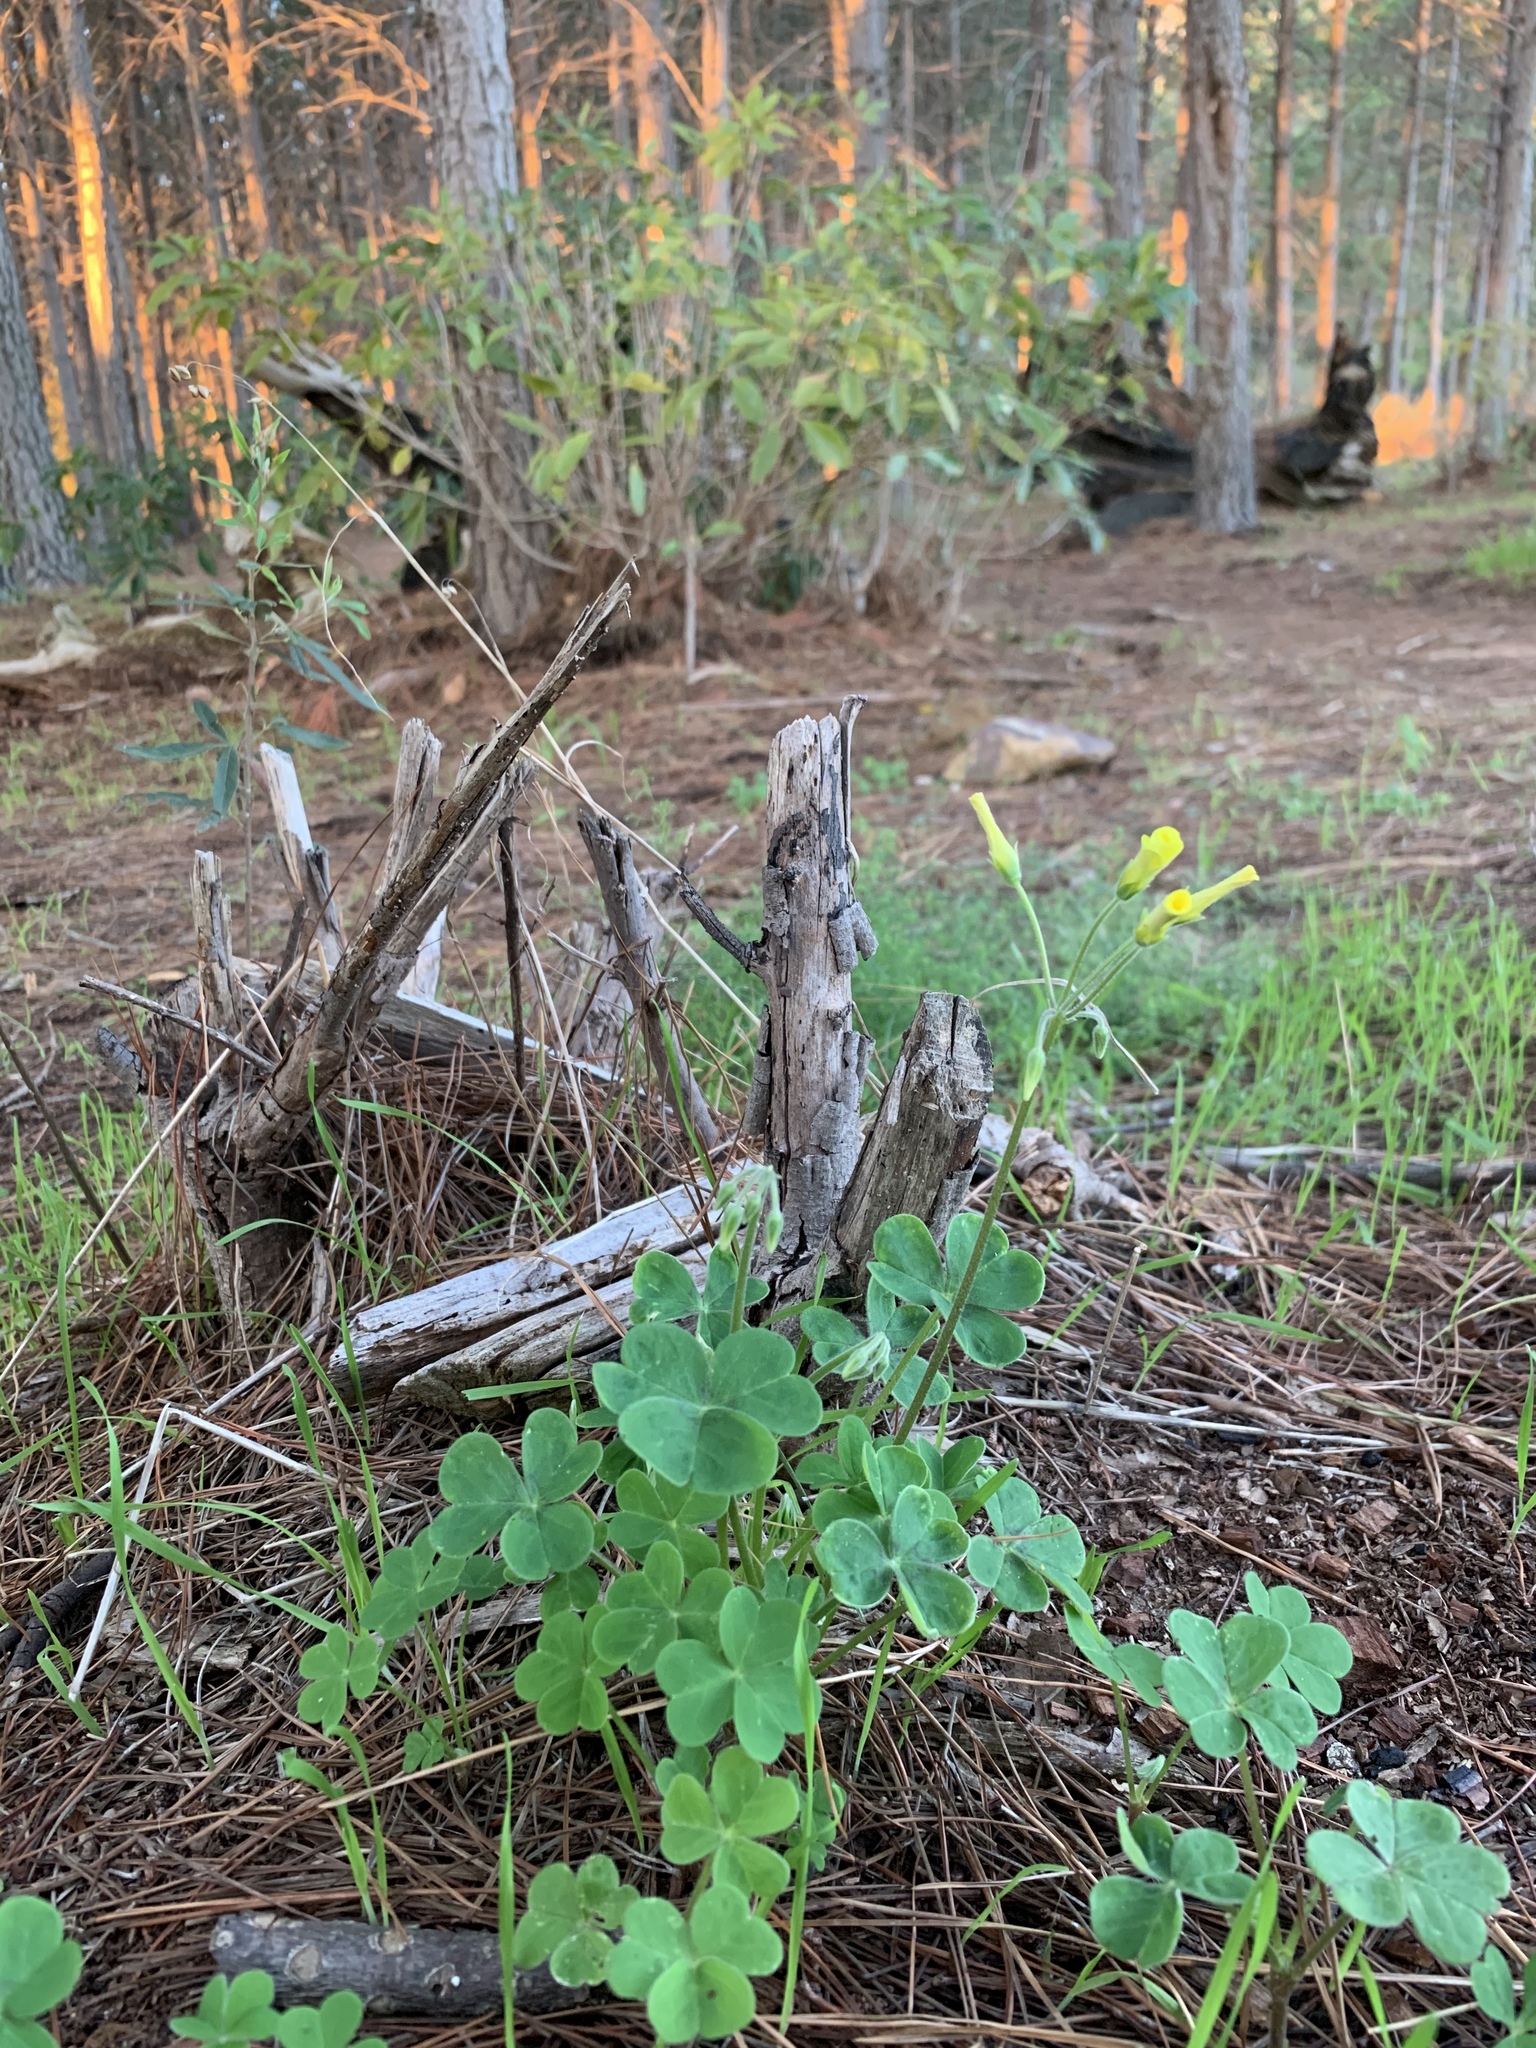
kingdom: Plantae
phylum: Tracheophyta
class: Magnoliopsida
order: Oxalidales
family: Oxalidaceae
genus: Oxalis
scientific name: Oxalis pes-caprae
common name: Bermuda-buttercup
